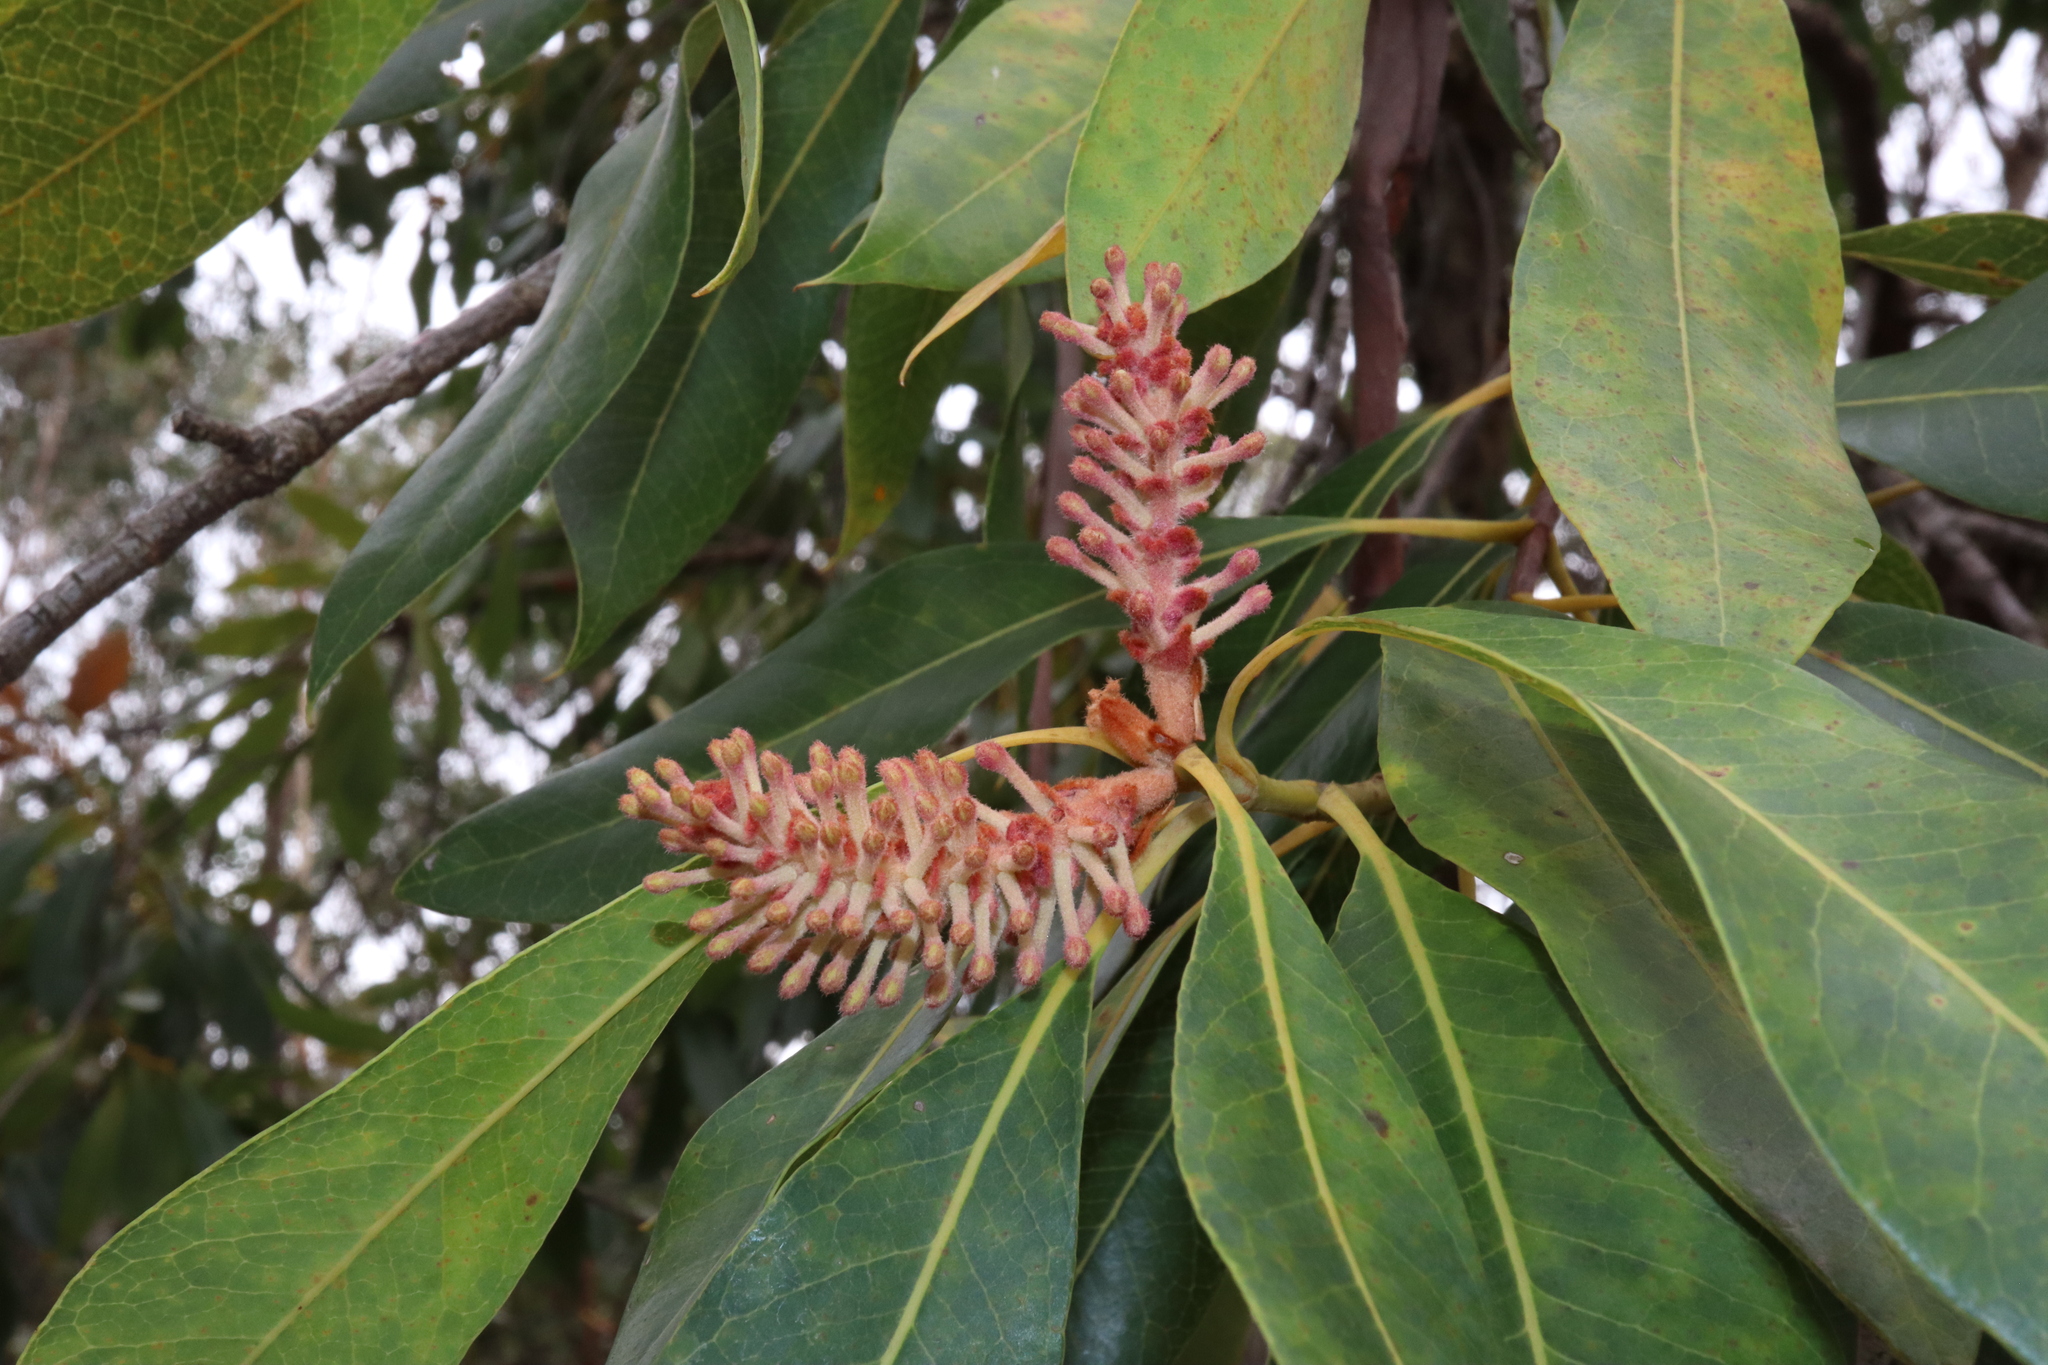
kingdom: Plantae
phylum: Tracheophyta
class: Magnoliopsida
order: Proteales
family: Proteaceae
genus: Xylomelum
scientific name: Xylomelum pyriforme
